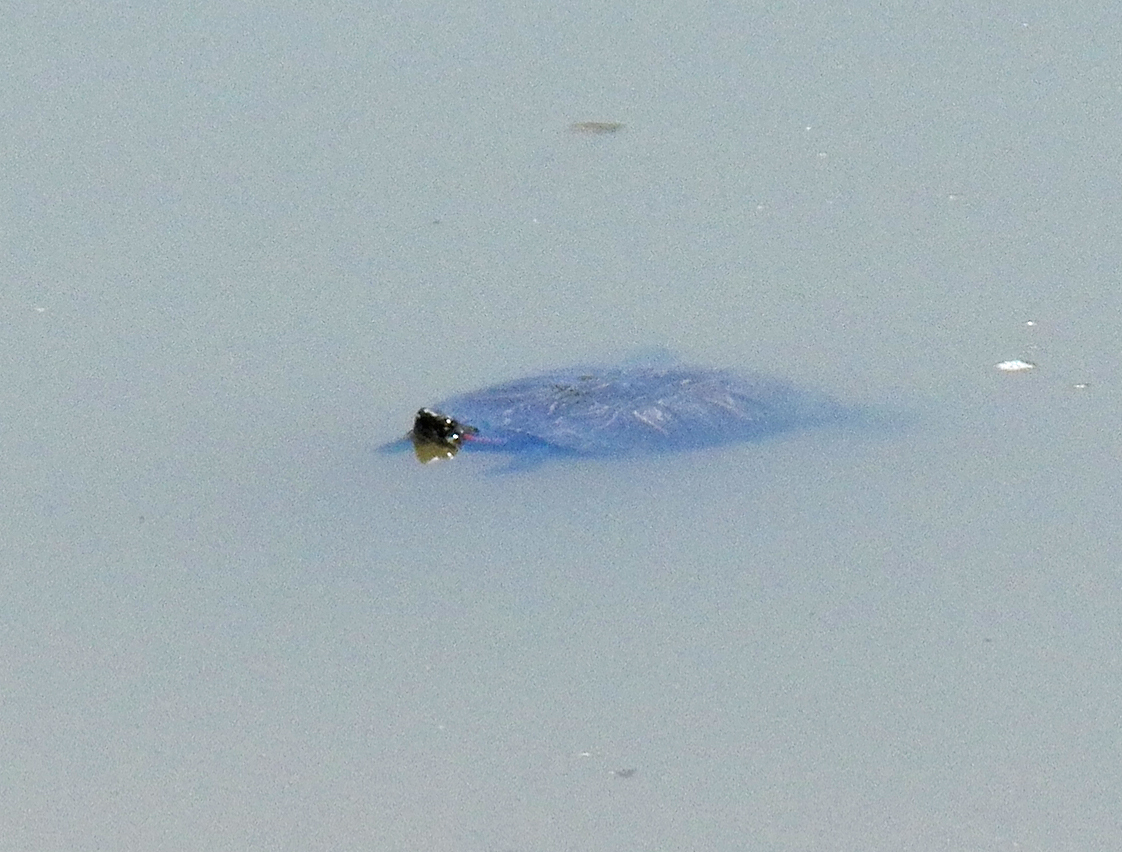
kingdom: Animalia
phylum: Chordata
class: Testudines
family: Emydidae
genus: Trachemys
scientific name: Trachemys scripta
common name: Slider
